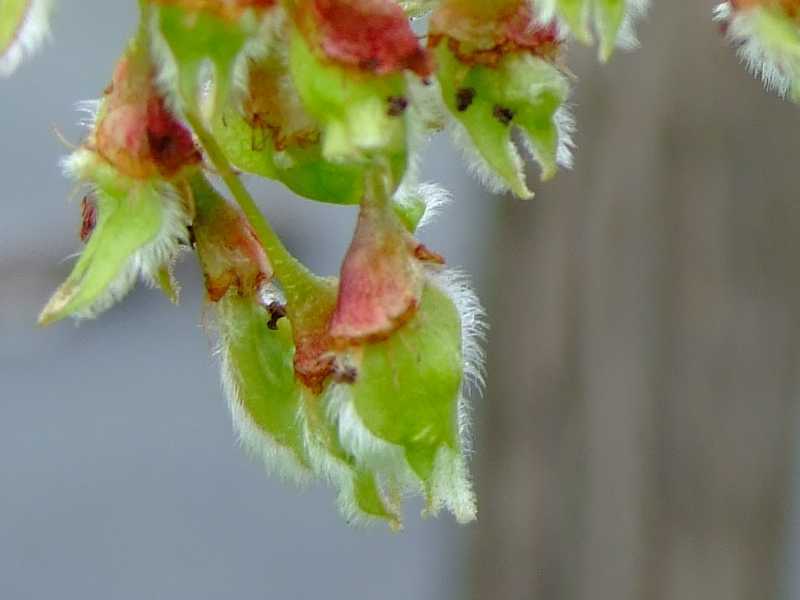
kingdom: Plantae
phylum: Tracheophyta
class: Magnoliopsida
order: Rosales
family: Ulmaceae
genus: Ulmus
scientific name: Ulmus americana
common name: American elm
